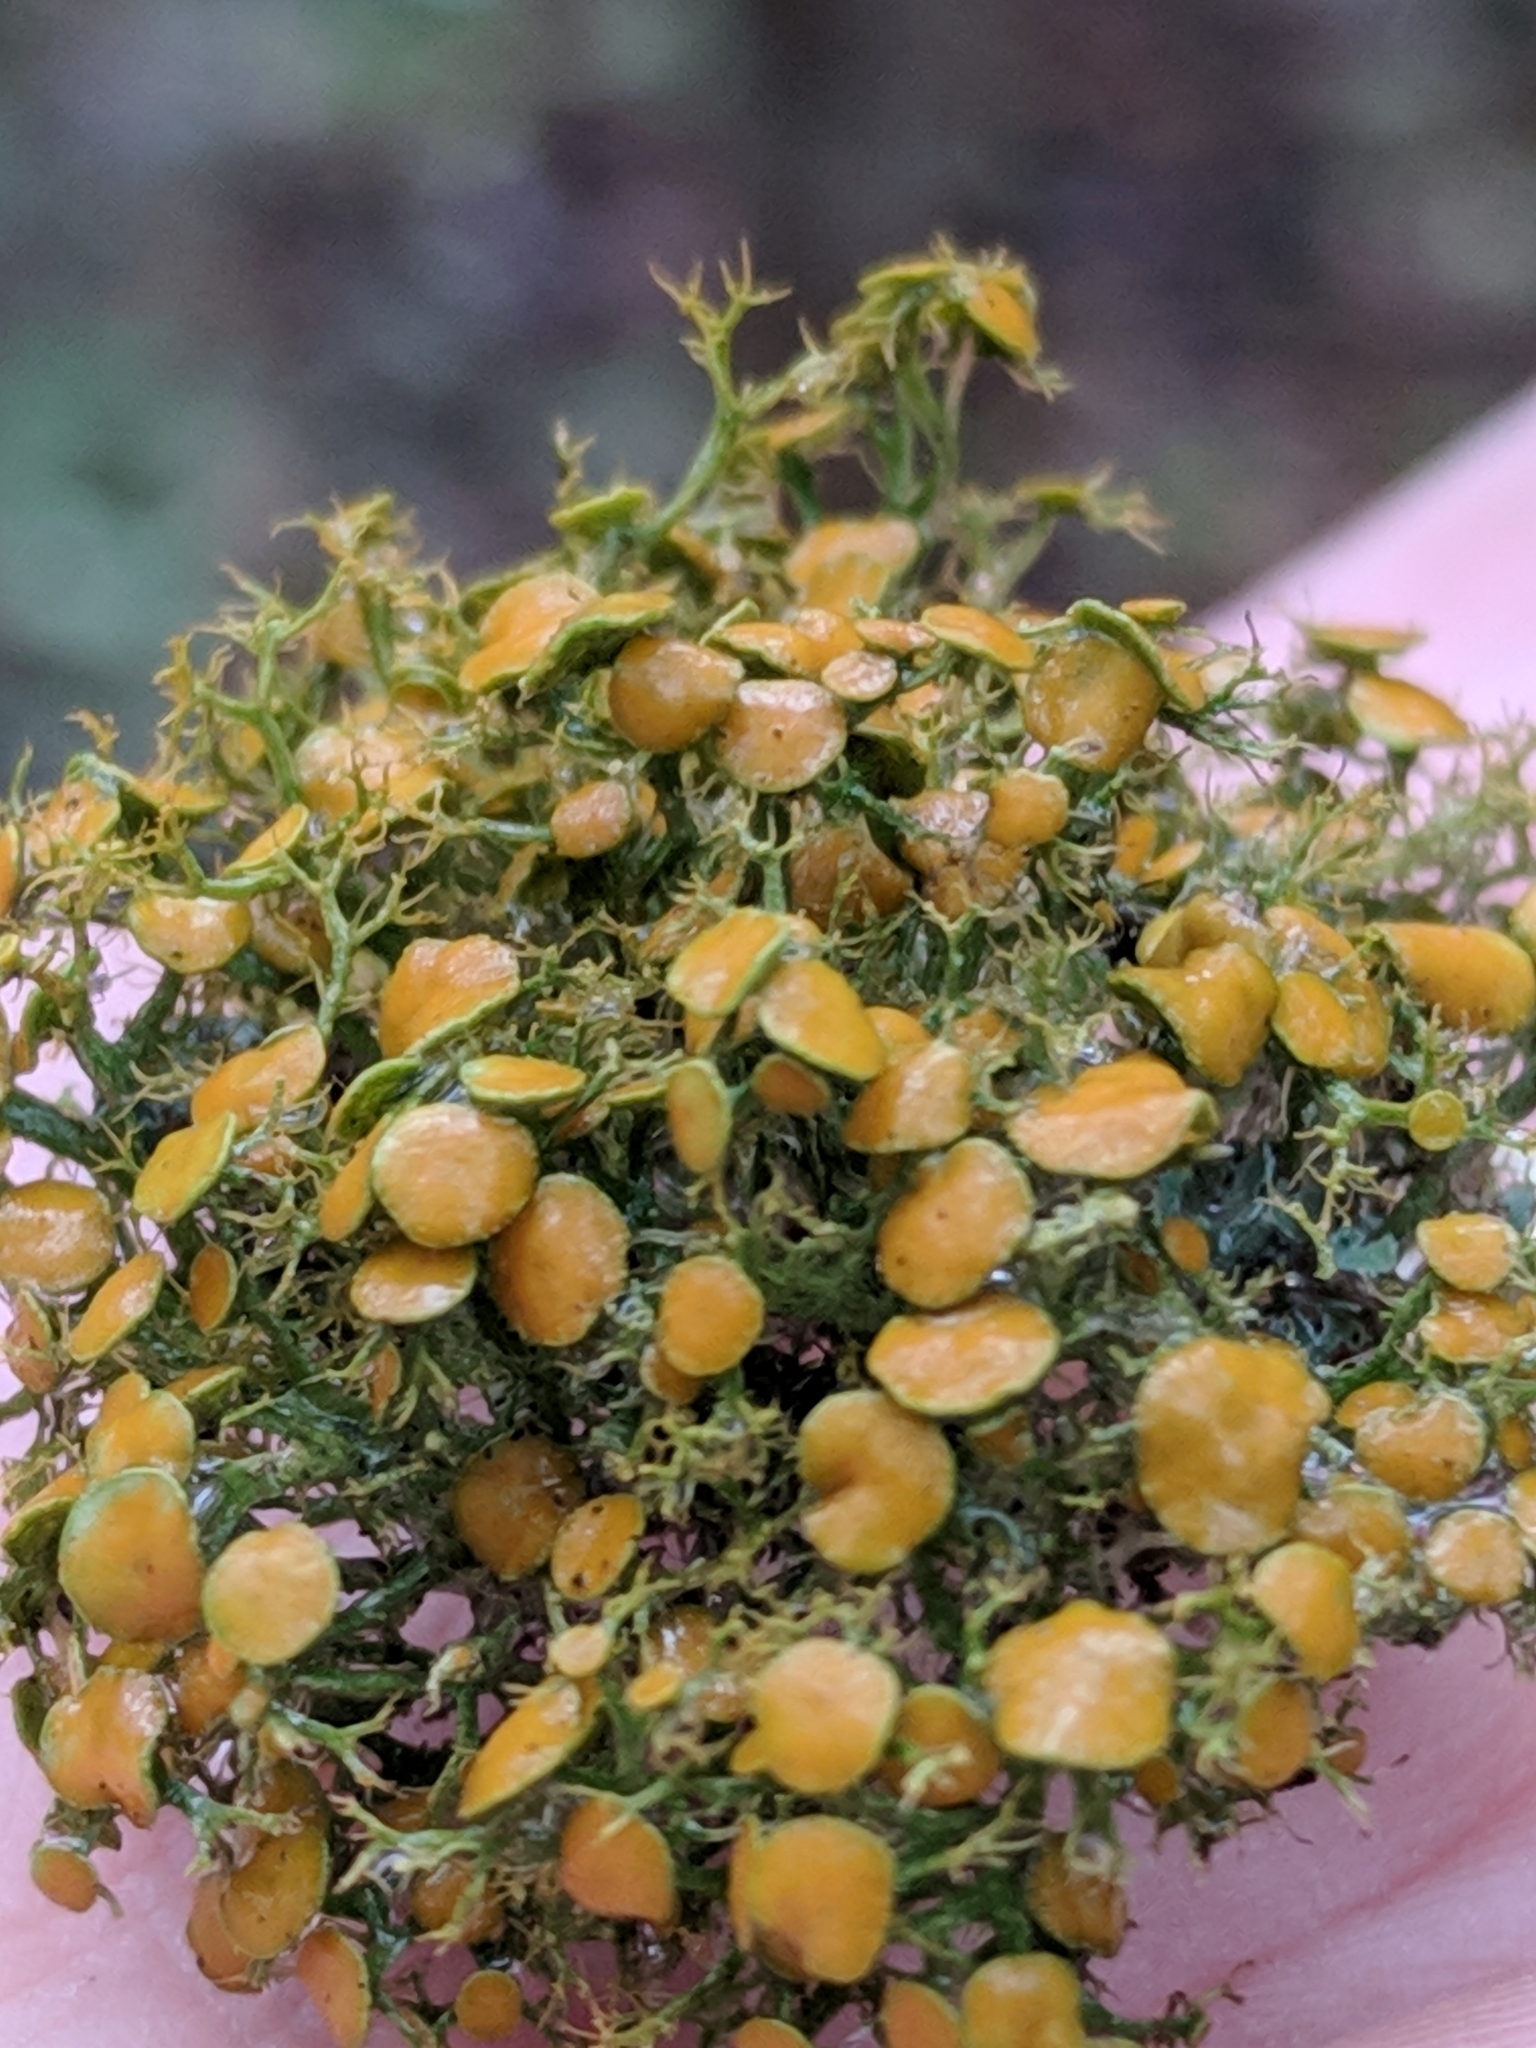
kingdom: Fungi
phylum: Ascomycota
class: Lecanoromycetes
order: Teloschistales
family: Teloschistaceae
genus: Teloschistes
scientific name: Teloschistes exilis
